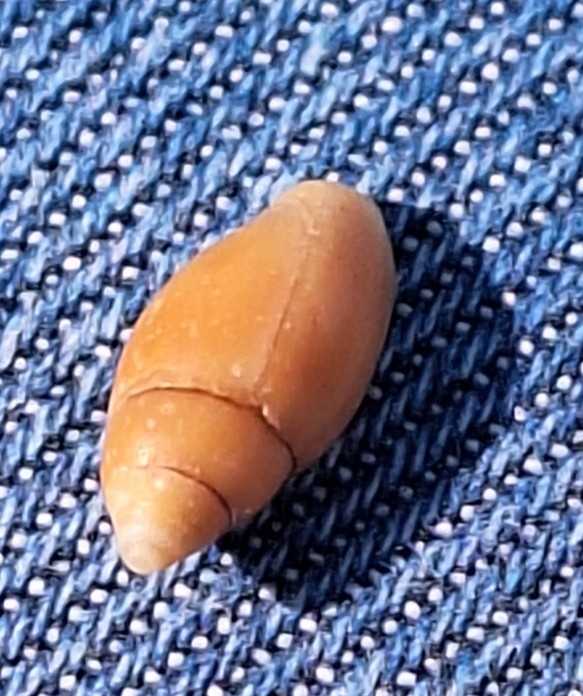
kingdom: Animalia
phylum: Mollusca
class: Gastropoda
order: Neogastropoda
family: Mitridae
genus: Episcomitra
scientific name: Episcomitra cornicula
